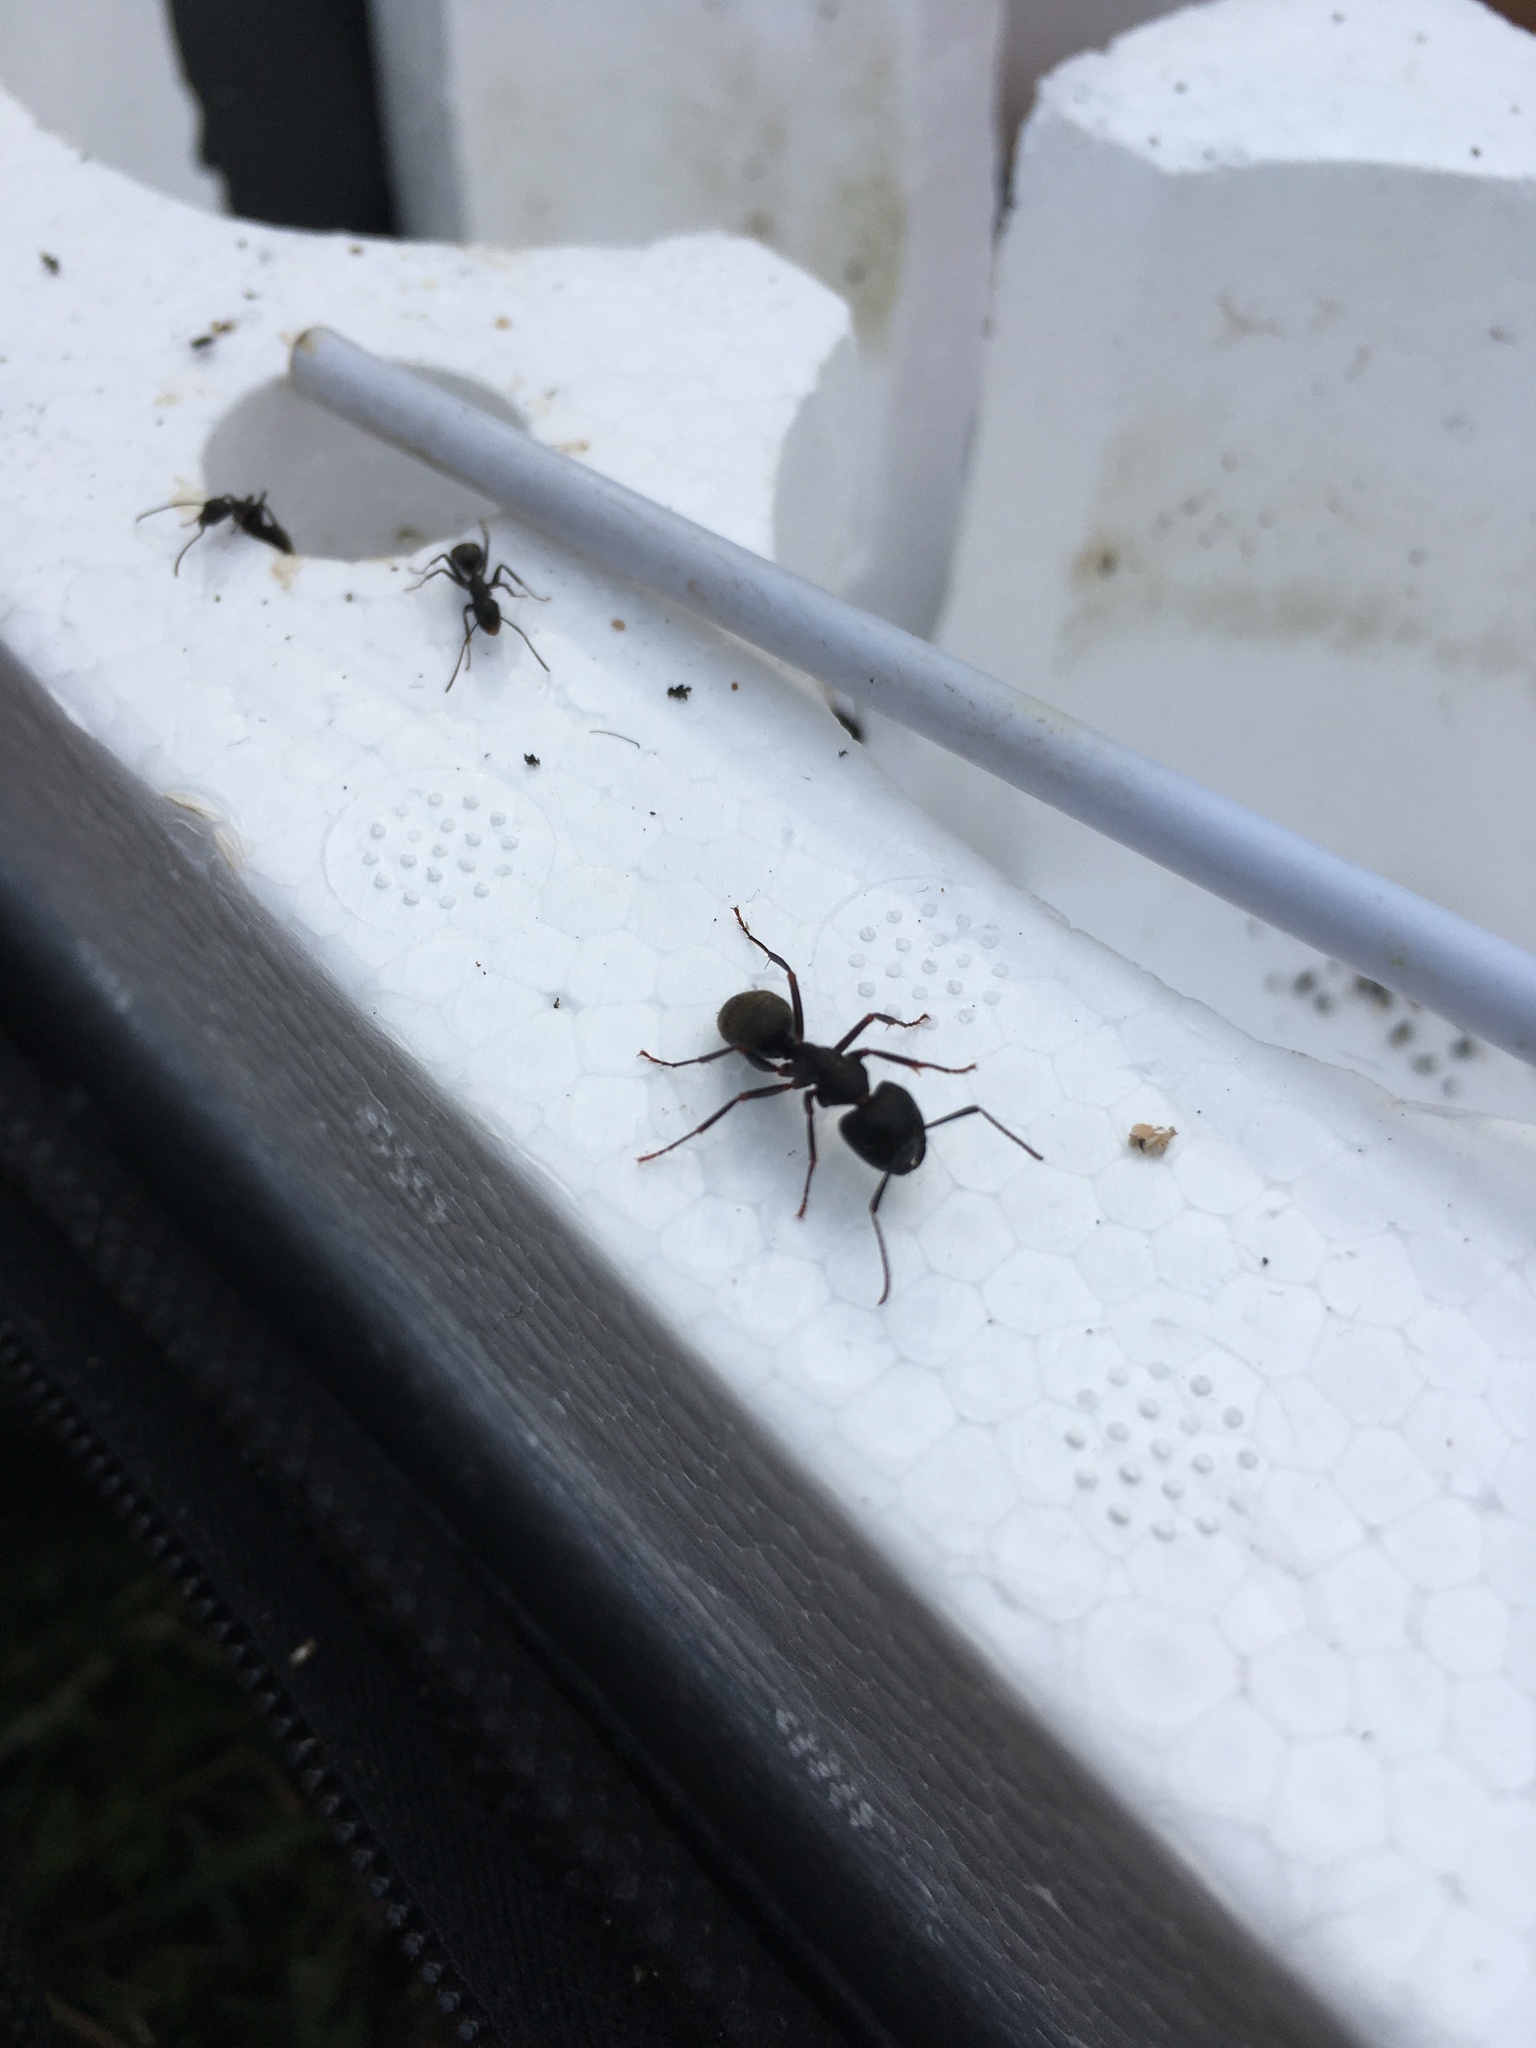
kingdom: Animalia
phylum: Arthropoda
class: Insecta
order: Hymenoptera
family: Formicidae
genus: Camponotus
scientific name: Camponotus pennsylvanicus
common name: Black carpenter ant
